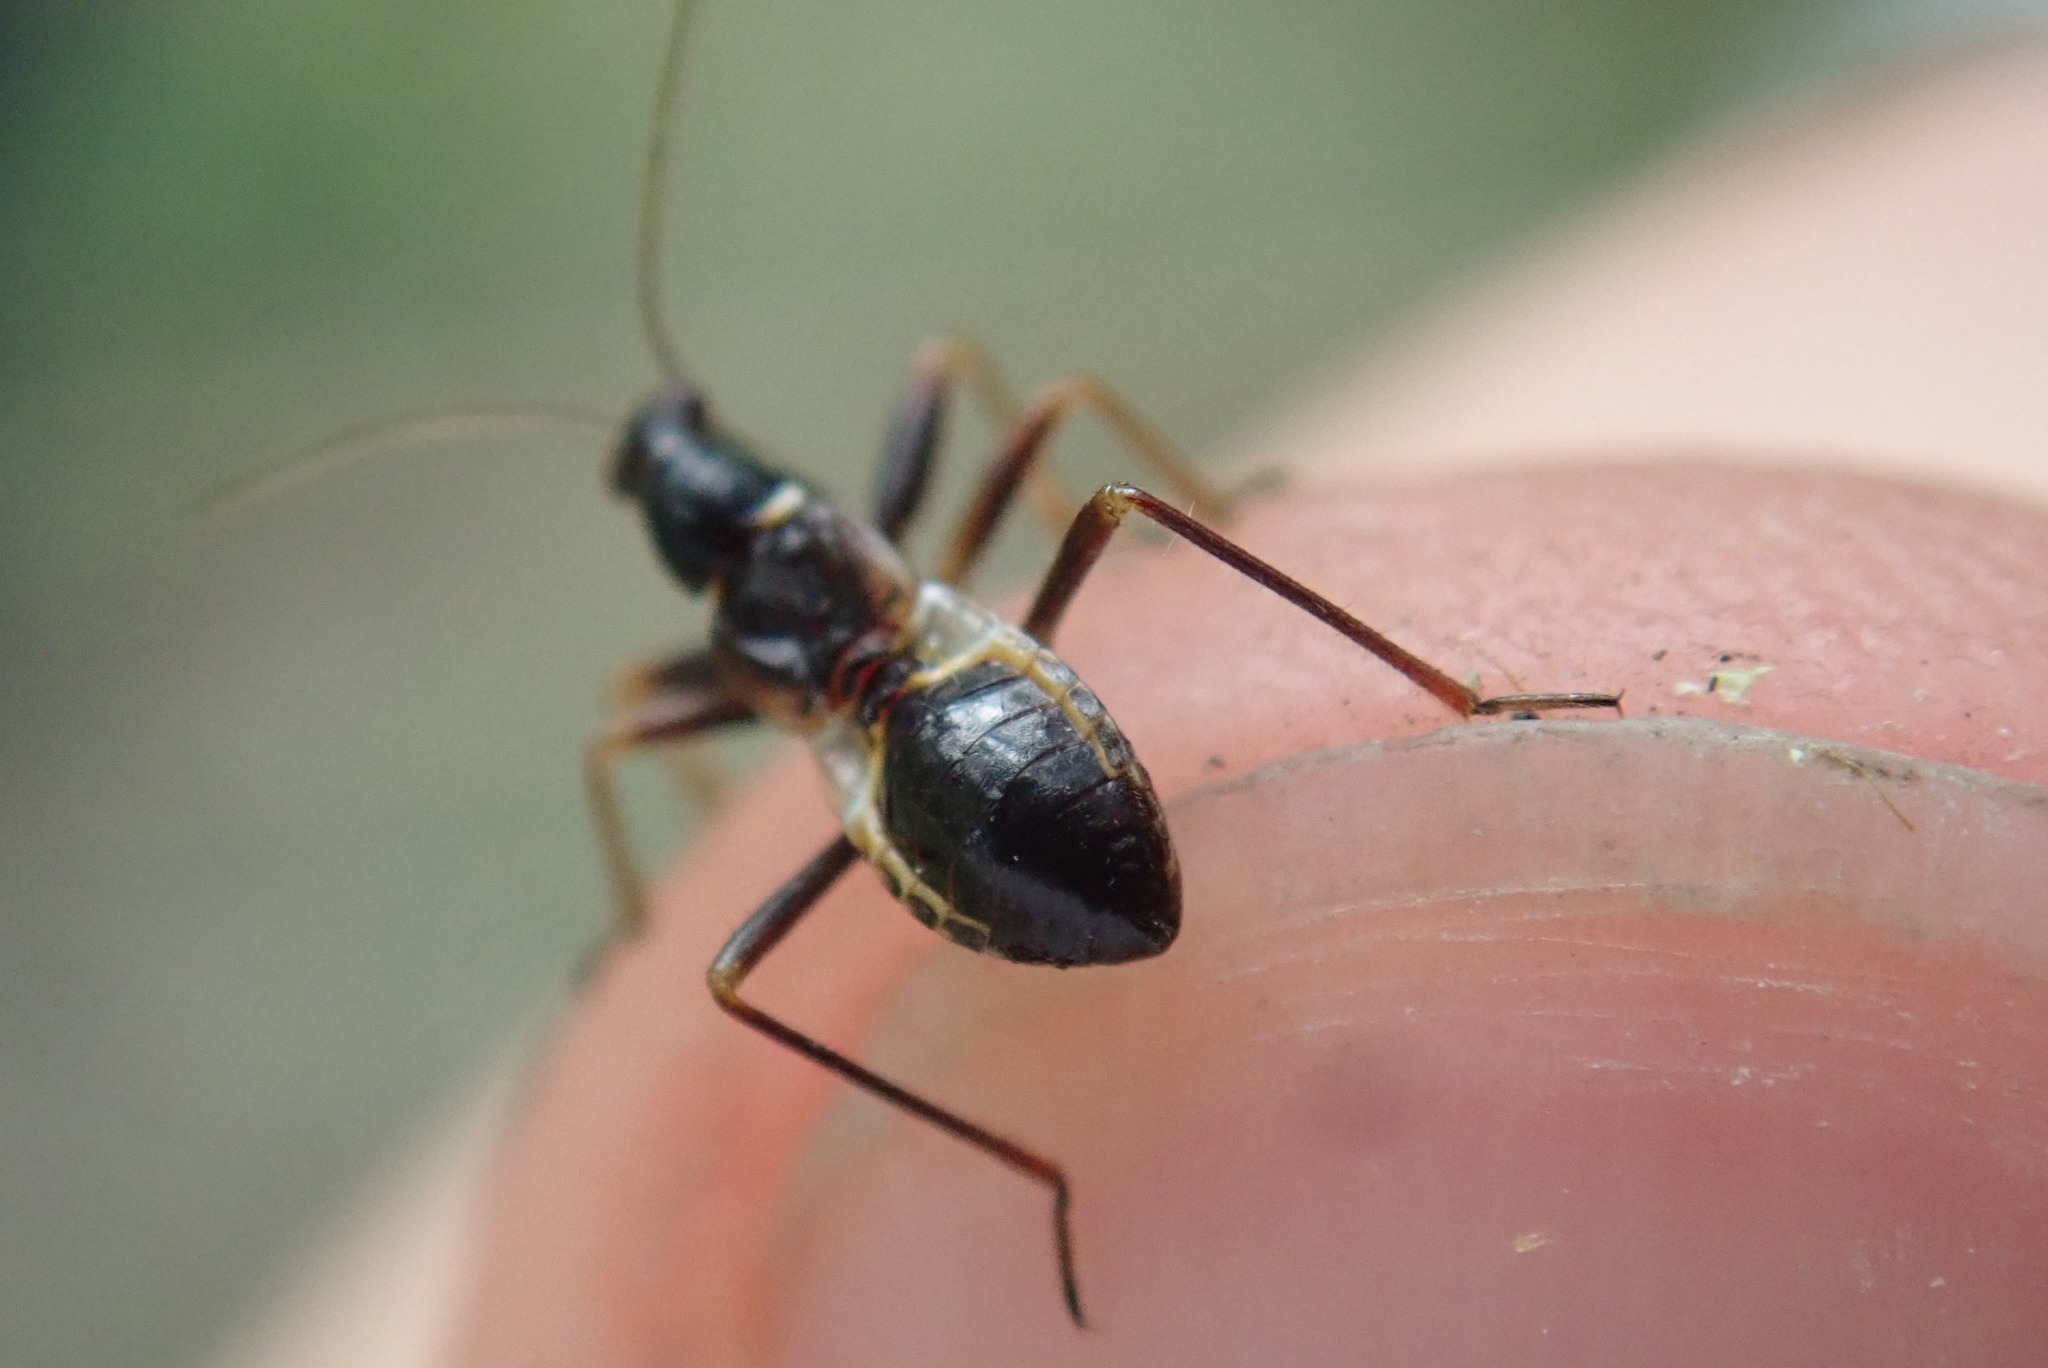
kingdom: Animalia
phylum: Arthropoda
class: Insecta
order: Hemiptera
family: Nabidae
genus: Himacerus
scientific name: Himacerus mirmicoides
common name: Ant damsel bug
